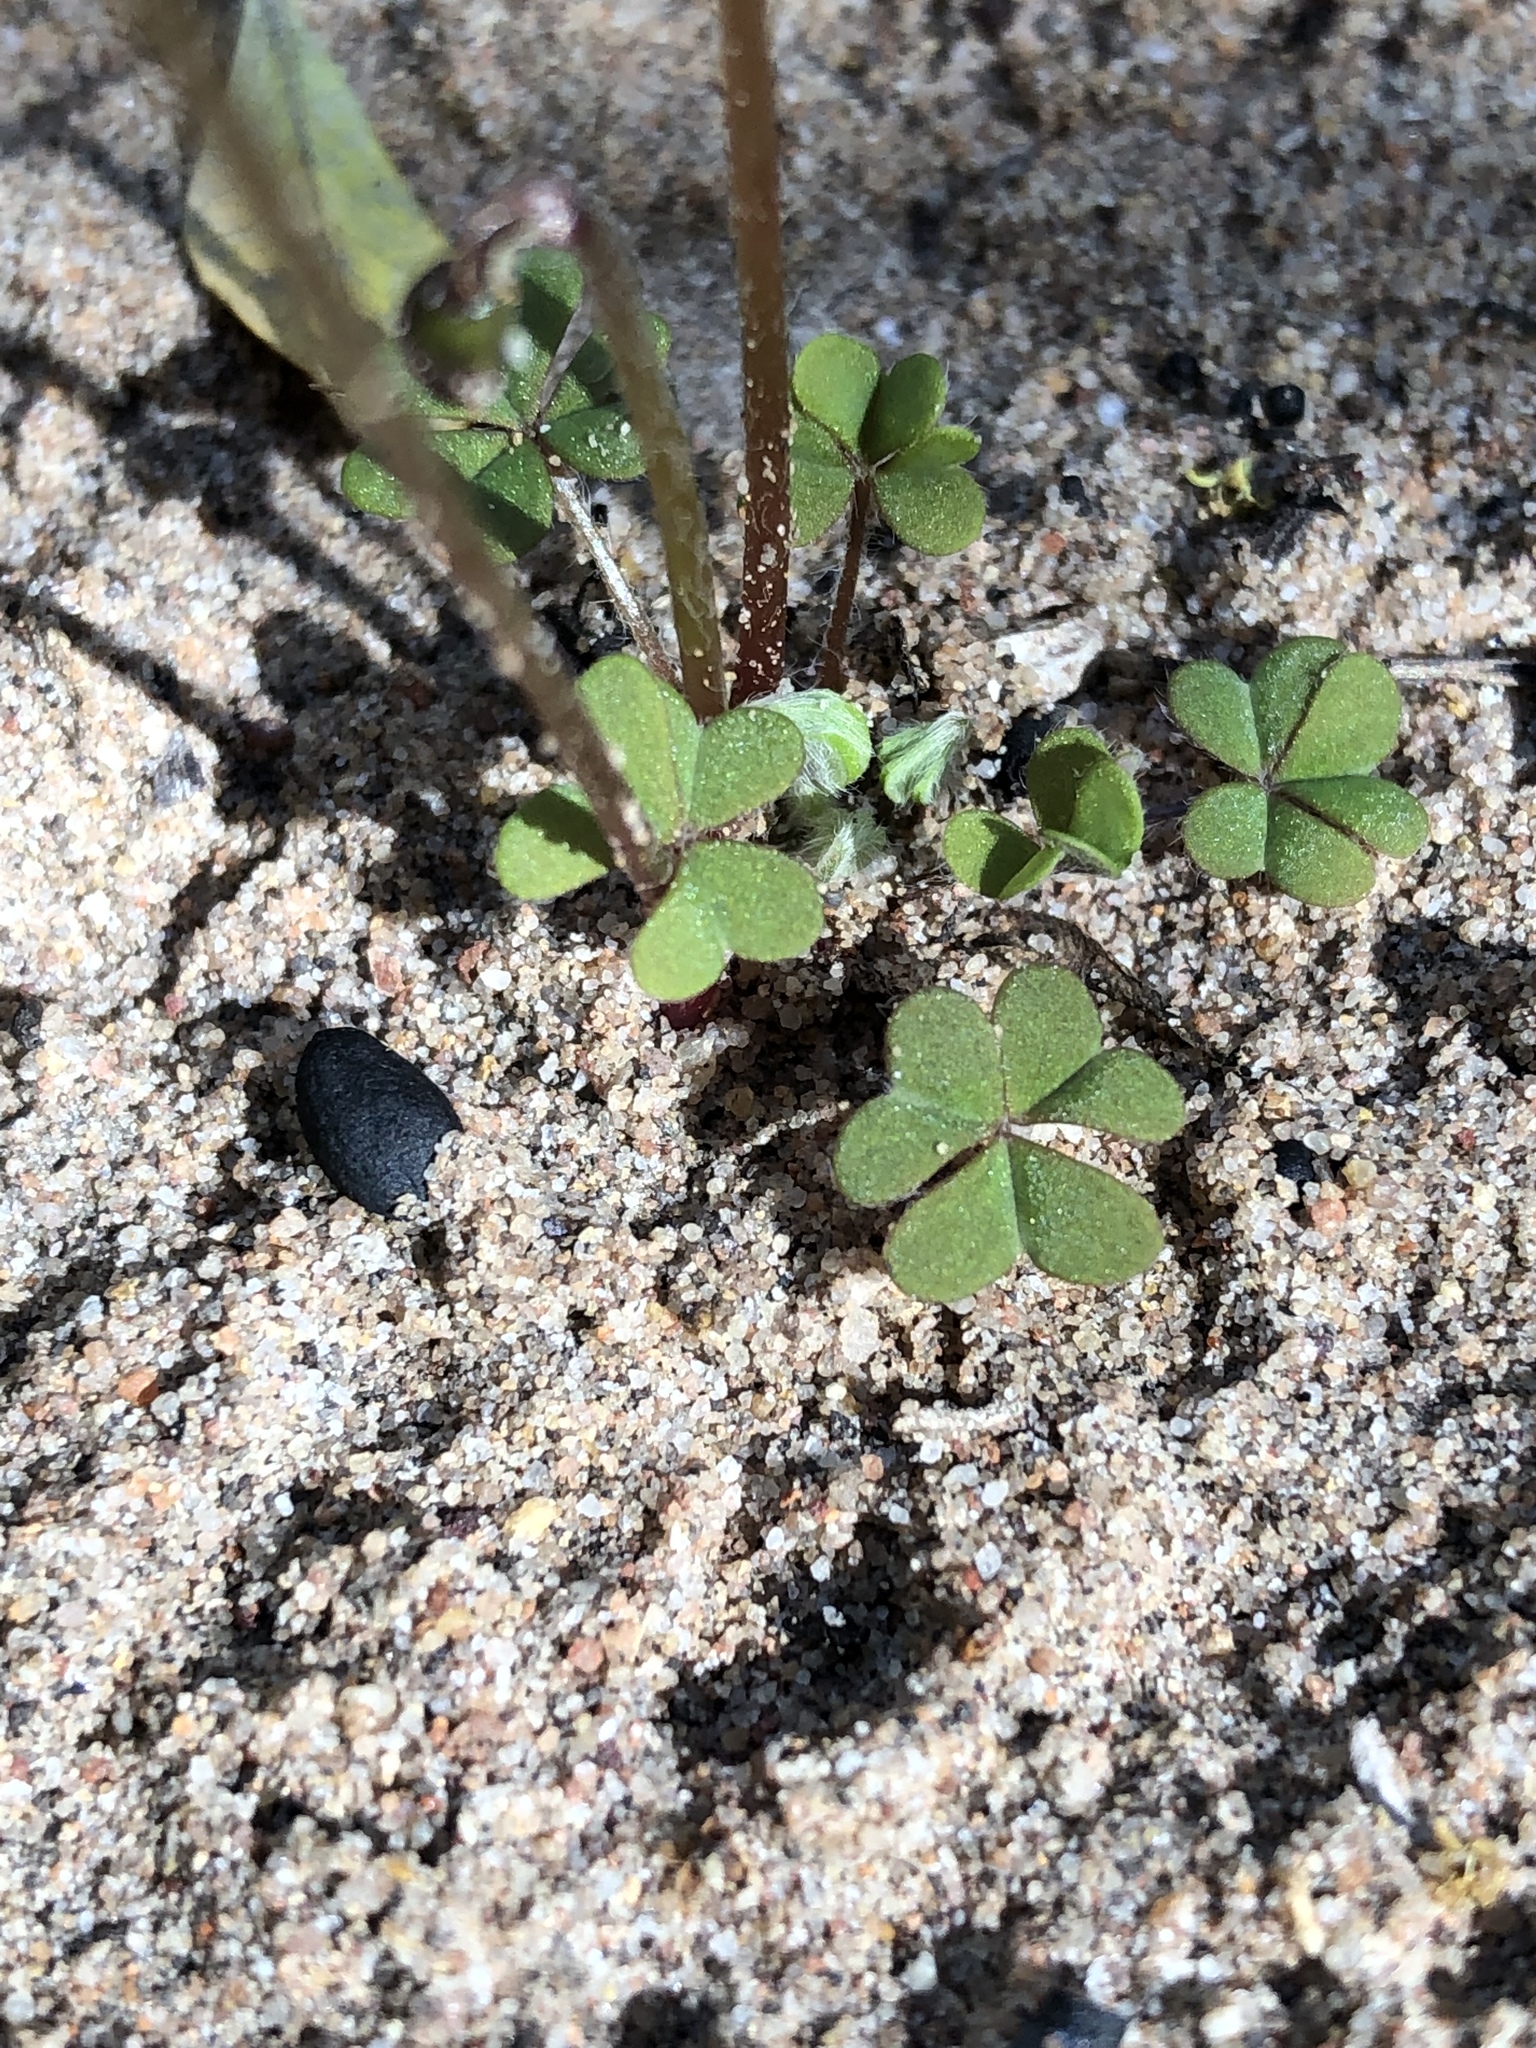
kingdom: Plantae
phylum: Tracheophyta
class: Magnoliopsida
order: Oxalidales
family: Oxalidaceae
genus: Oxalis
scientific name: Oxalis anomala
